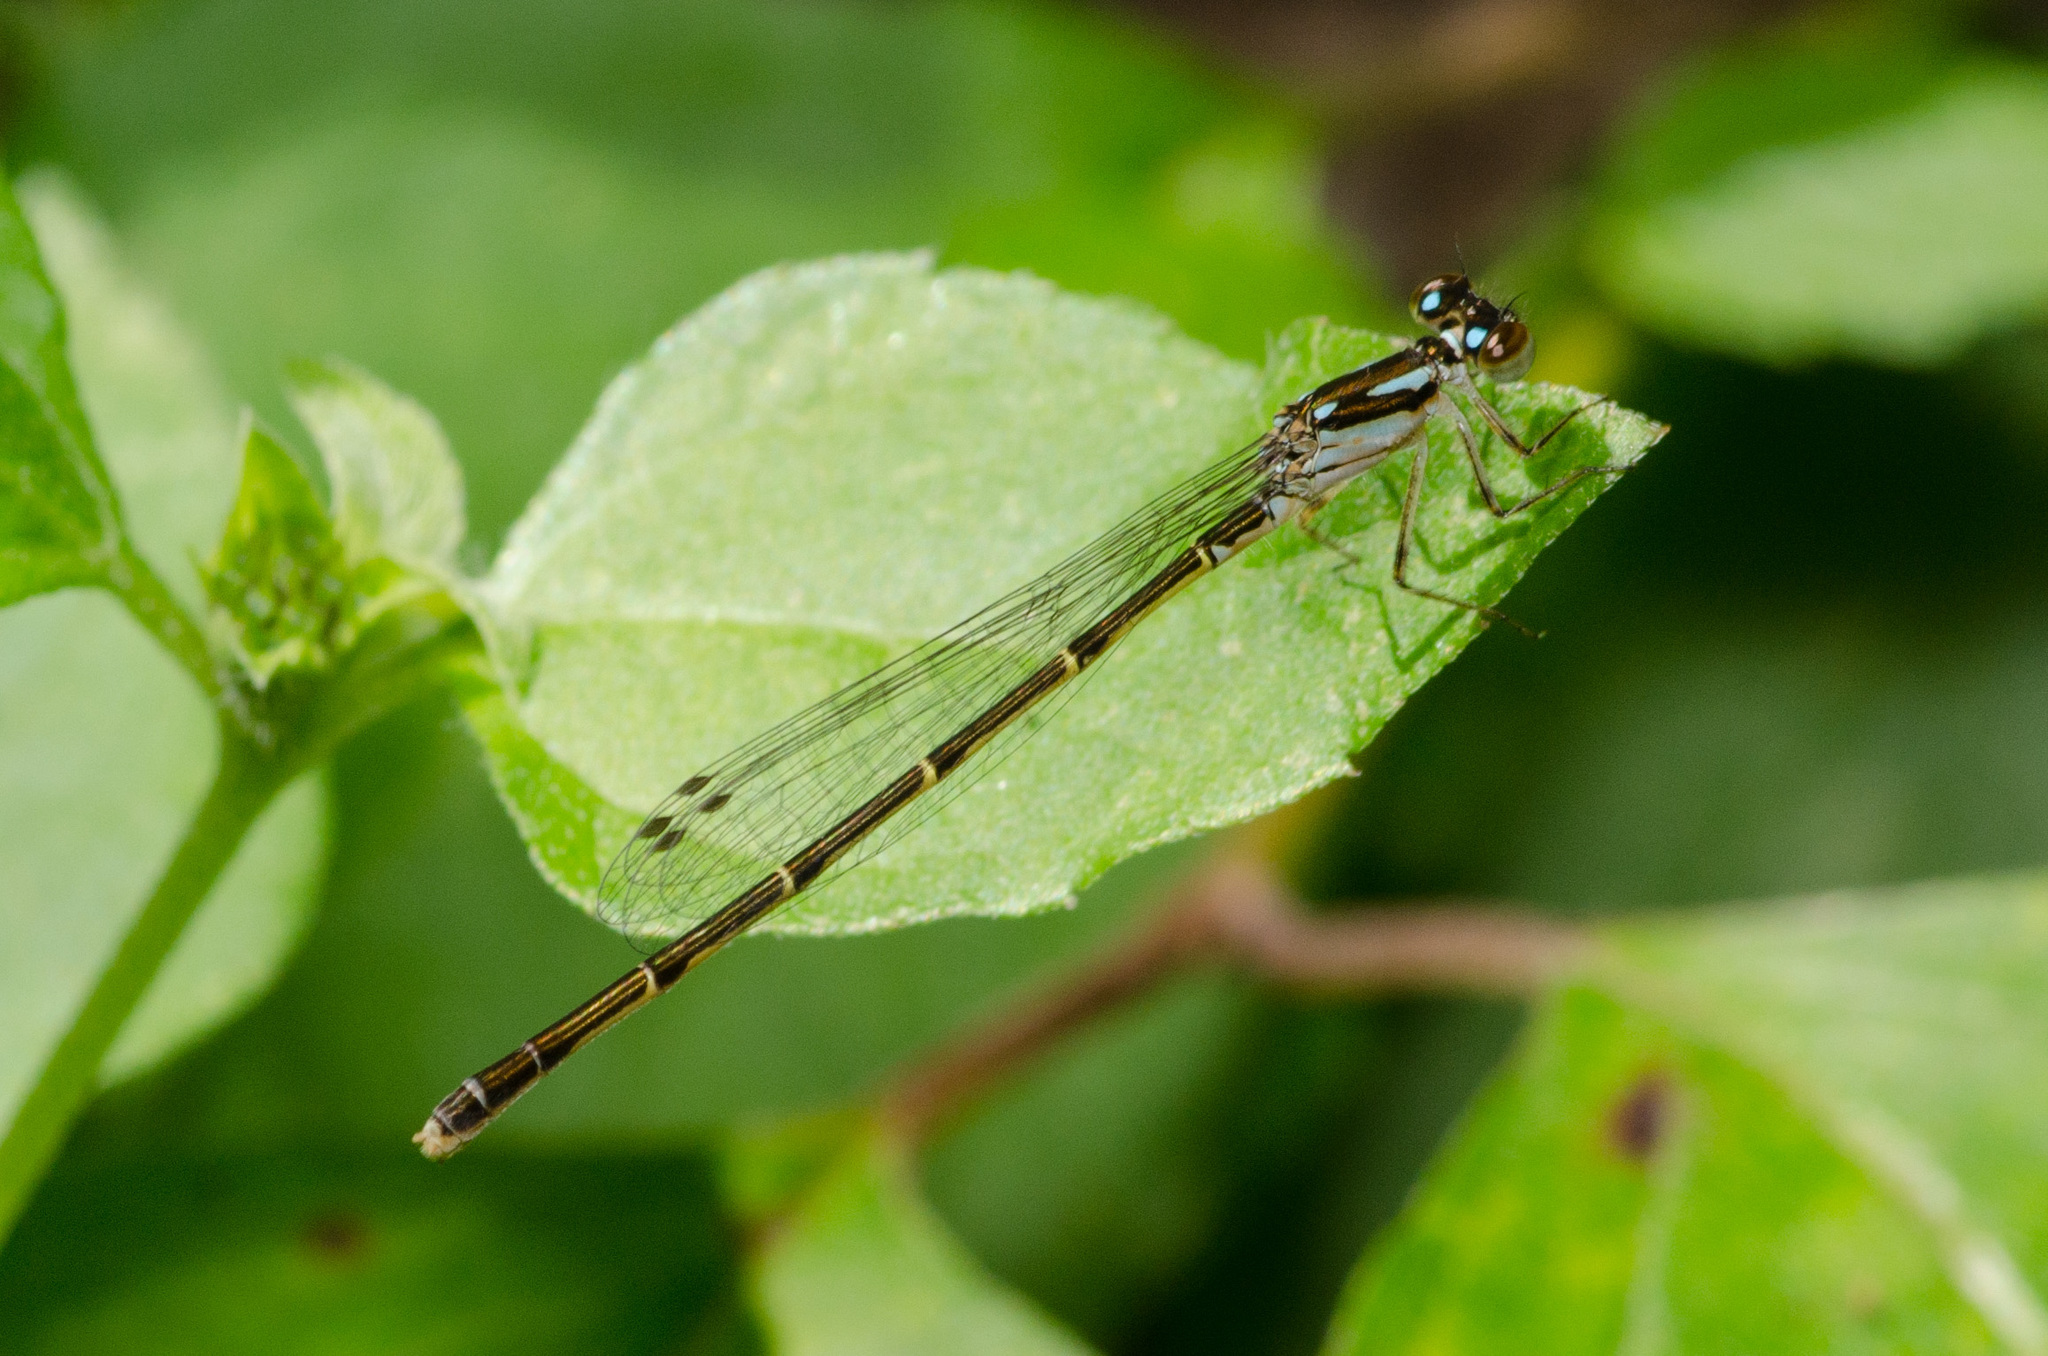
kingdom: Animalia
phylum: Arthropoda
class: Insecta
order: Odonata
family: Coenagrionidae
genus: Ischnura
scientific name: Ischnura posita
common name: Fragile forktail
